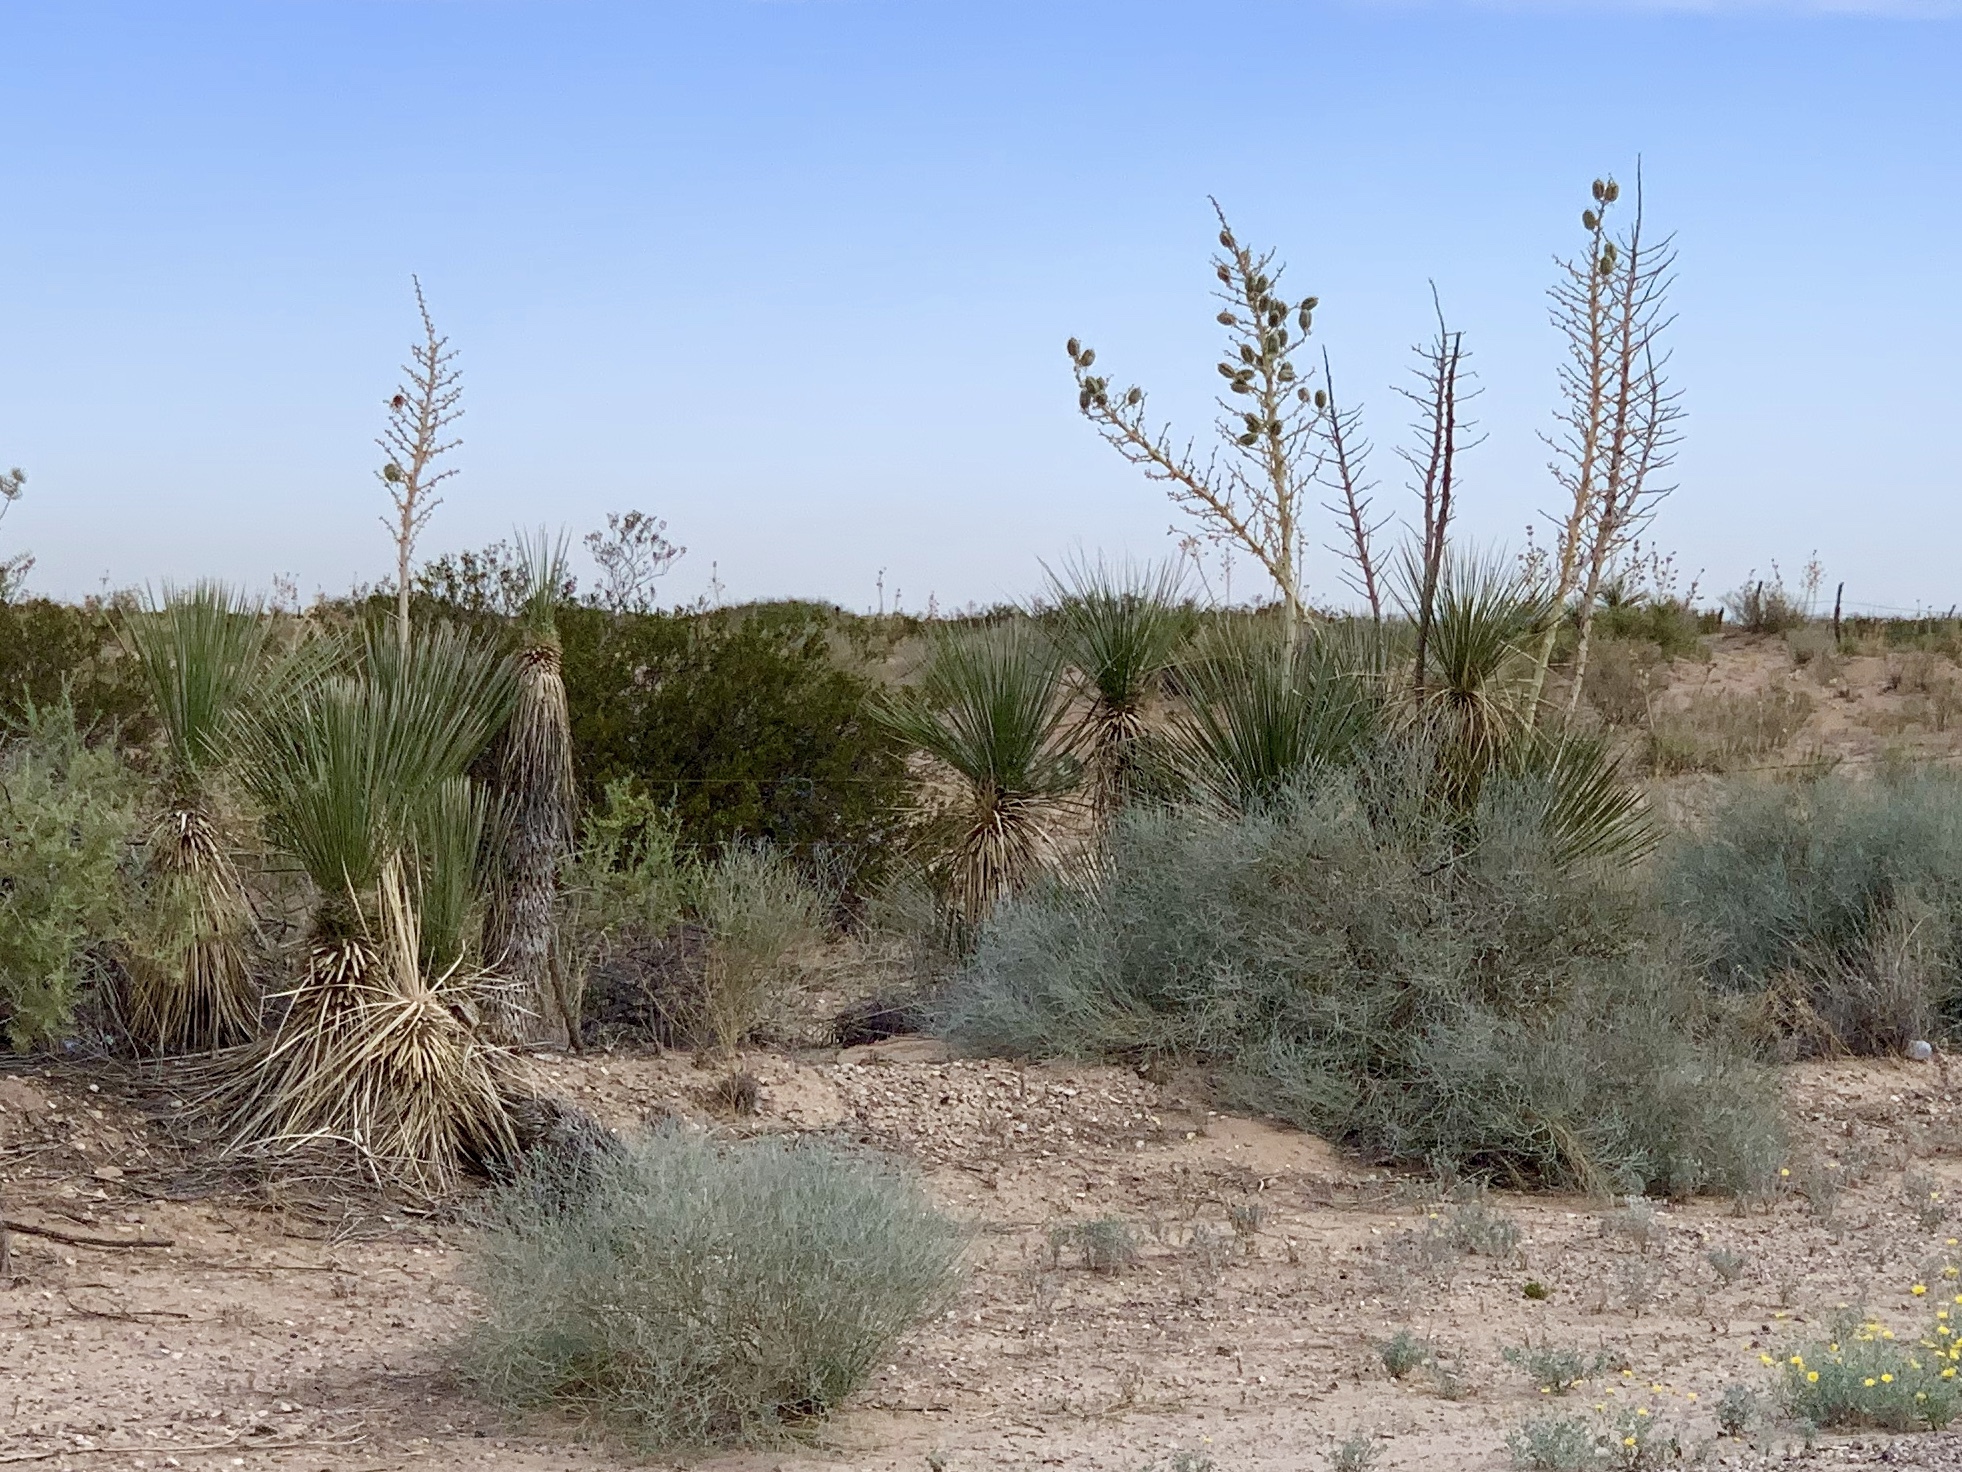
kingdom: Plantae
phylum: Tracheophyta
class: Liliopsida
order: Asparagales
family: Asparagaceae
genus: Yucca
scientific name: Yucca elata
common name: Palmella
